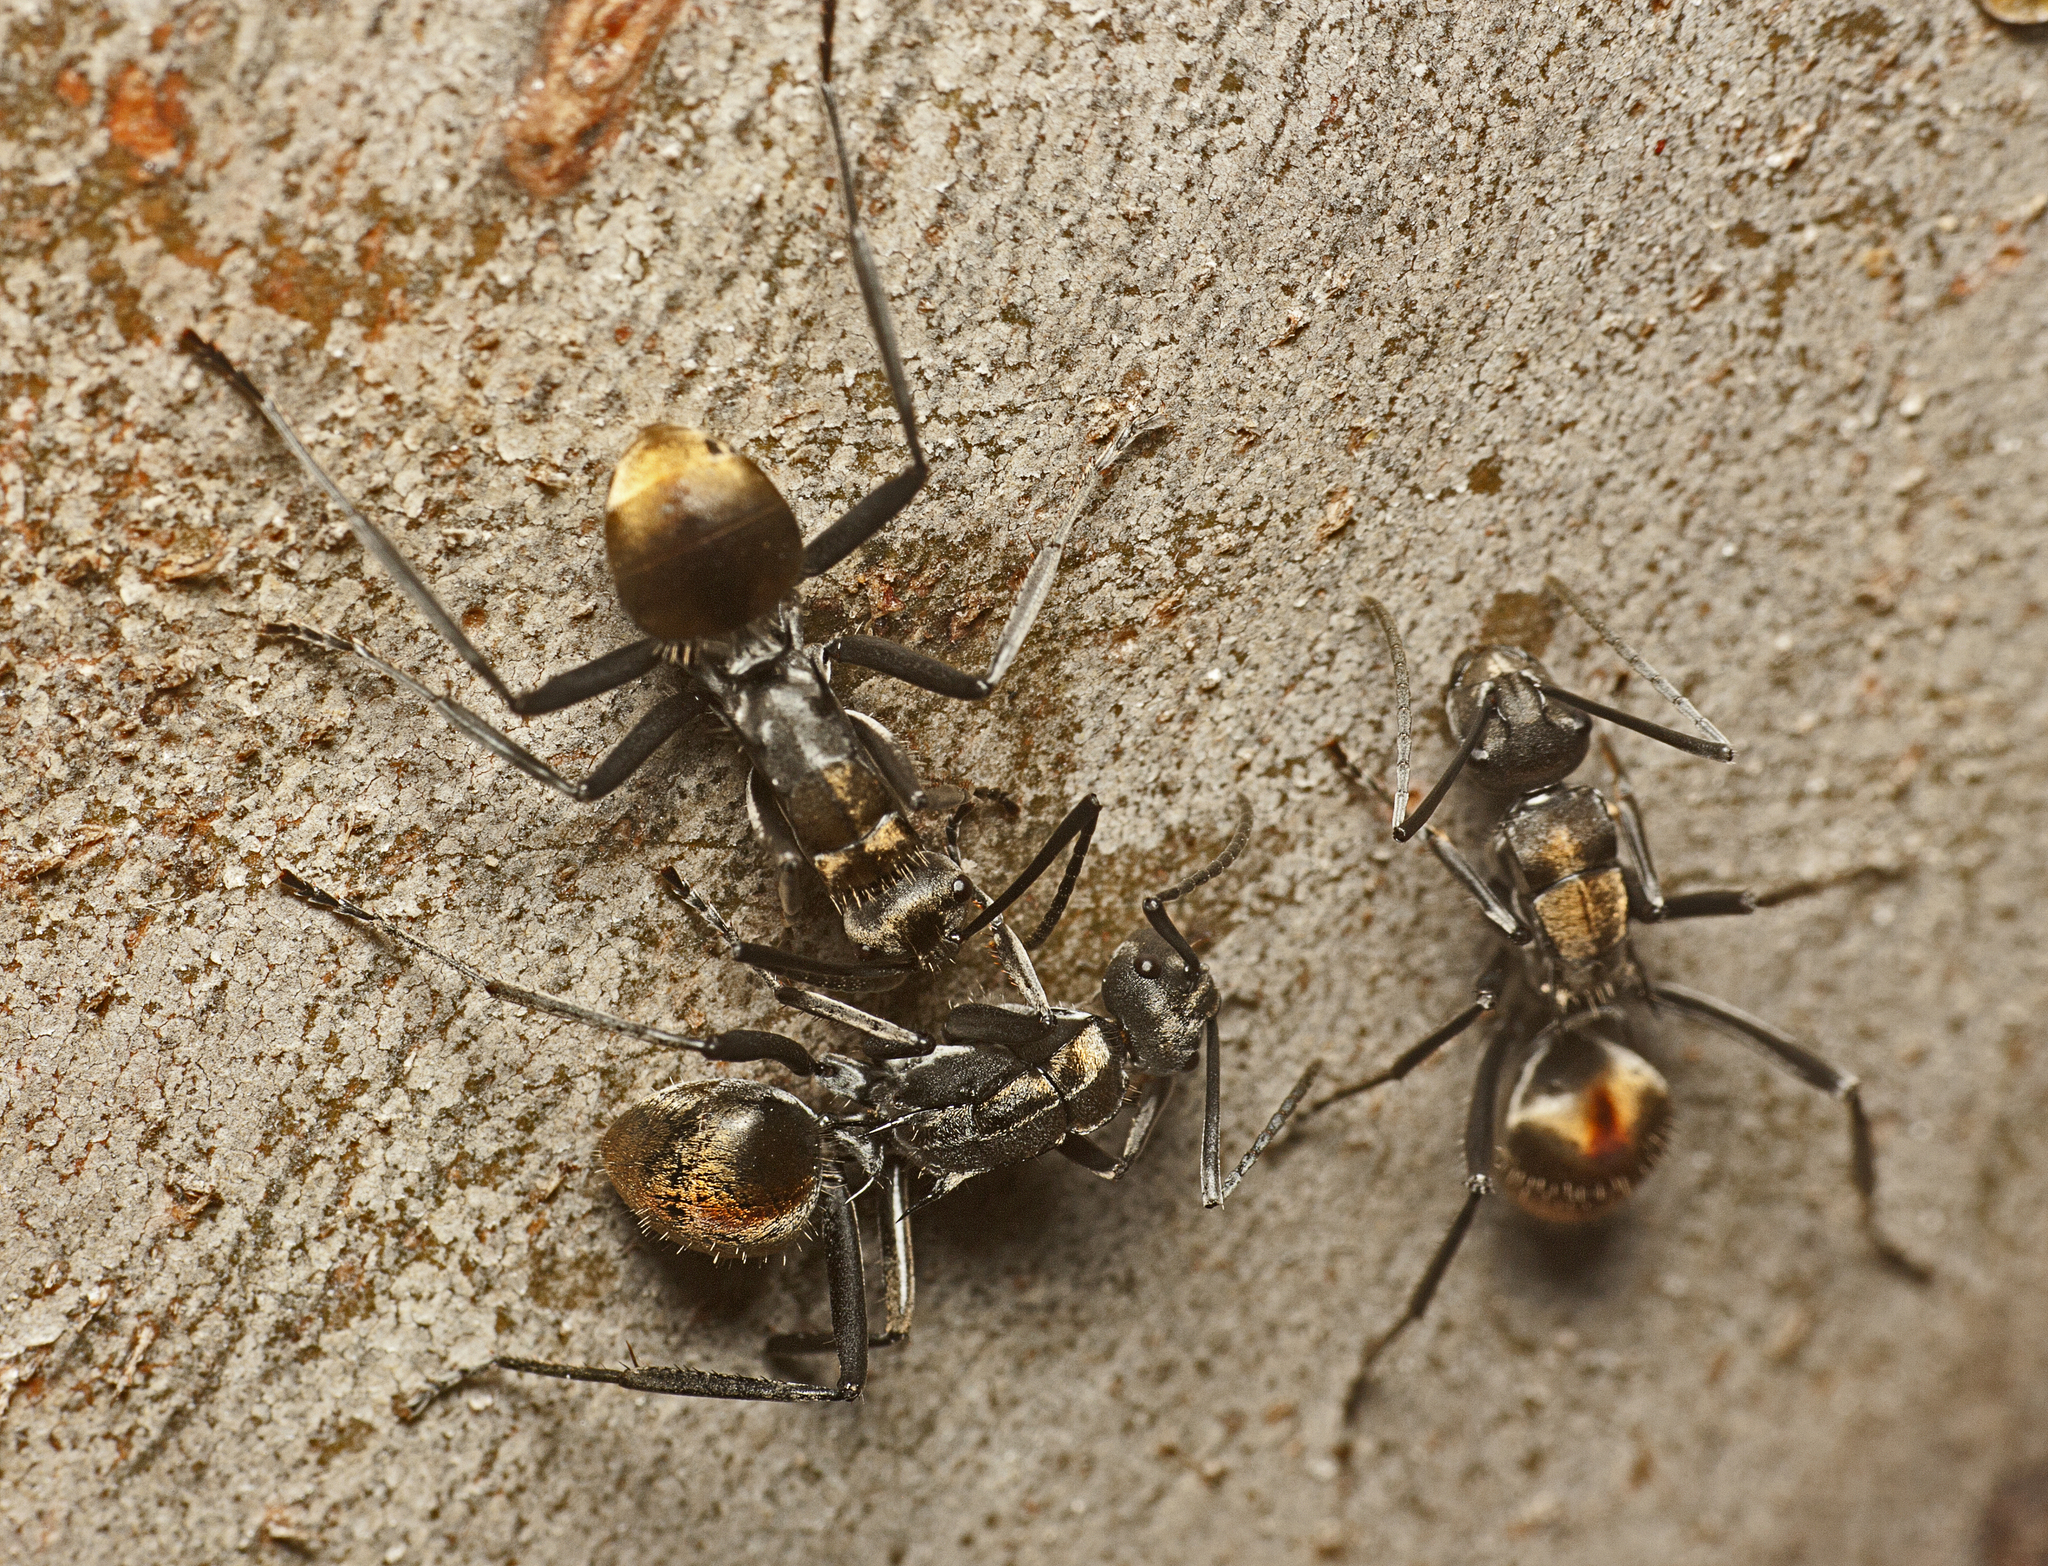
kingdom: Animalia
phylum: Arthropoda
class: Insecta
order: Hymenoptera
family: Formicidae
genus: Polyrhachis
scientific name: Polyrhachis
